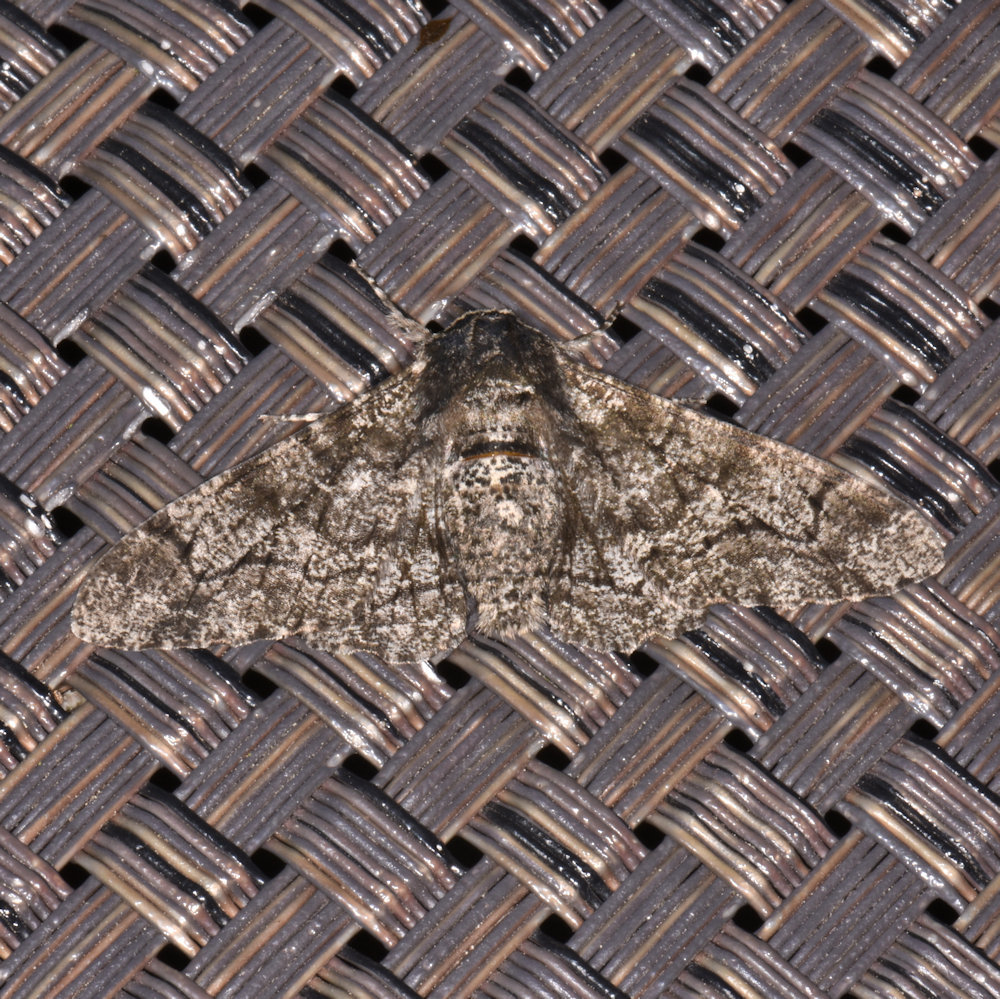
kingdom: Animalia
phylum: Arthropoda
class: Insecta
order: Lepidoptera
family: Geometridae
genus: Biston
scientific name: Biston betularia
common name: Peppered moth
